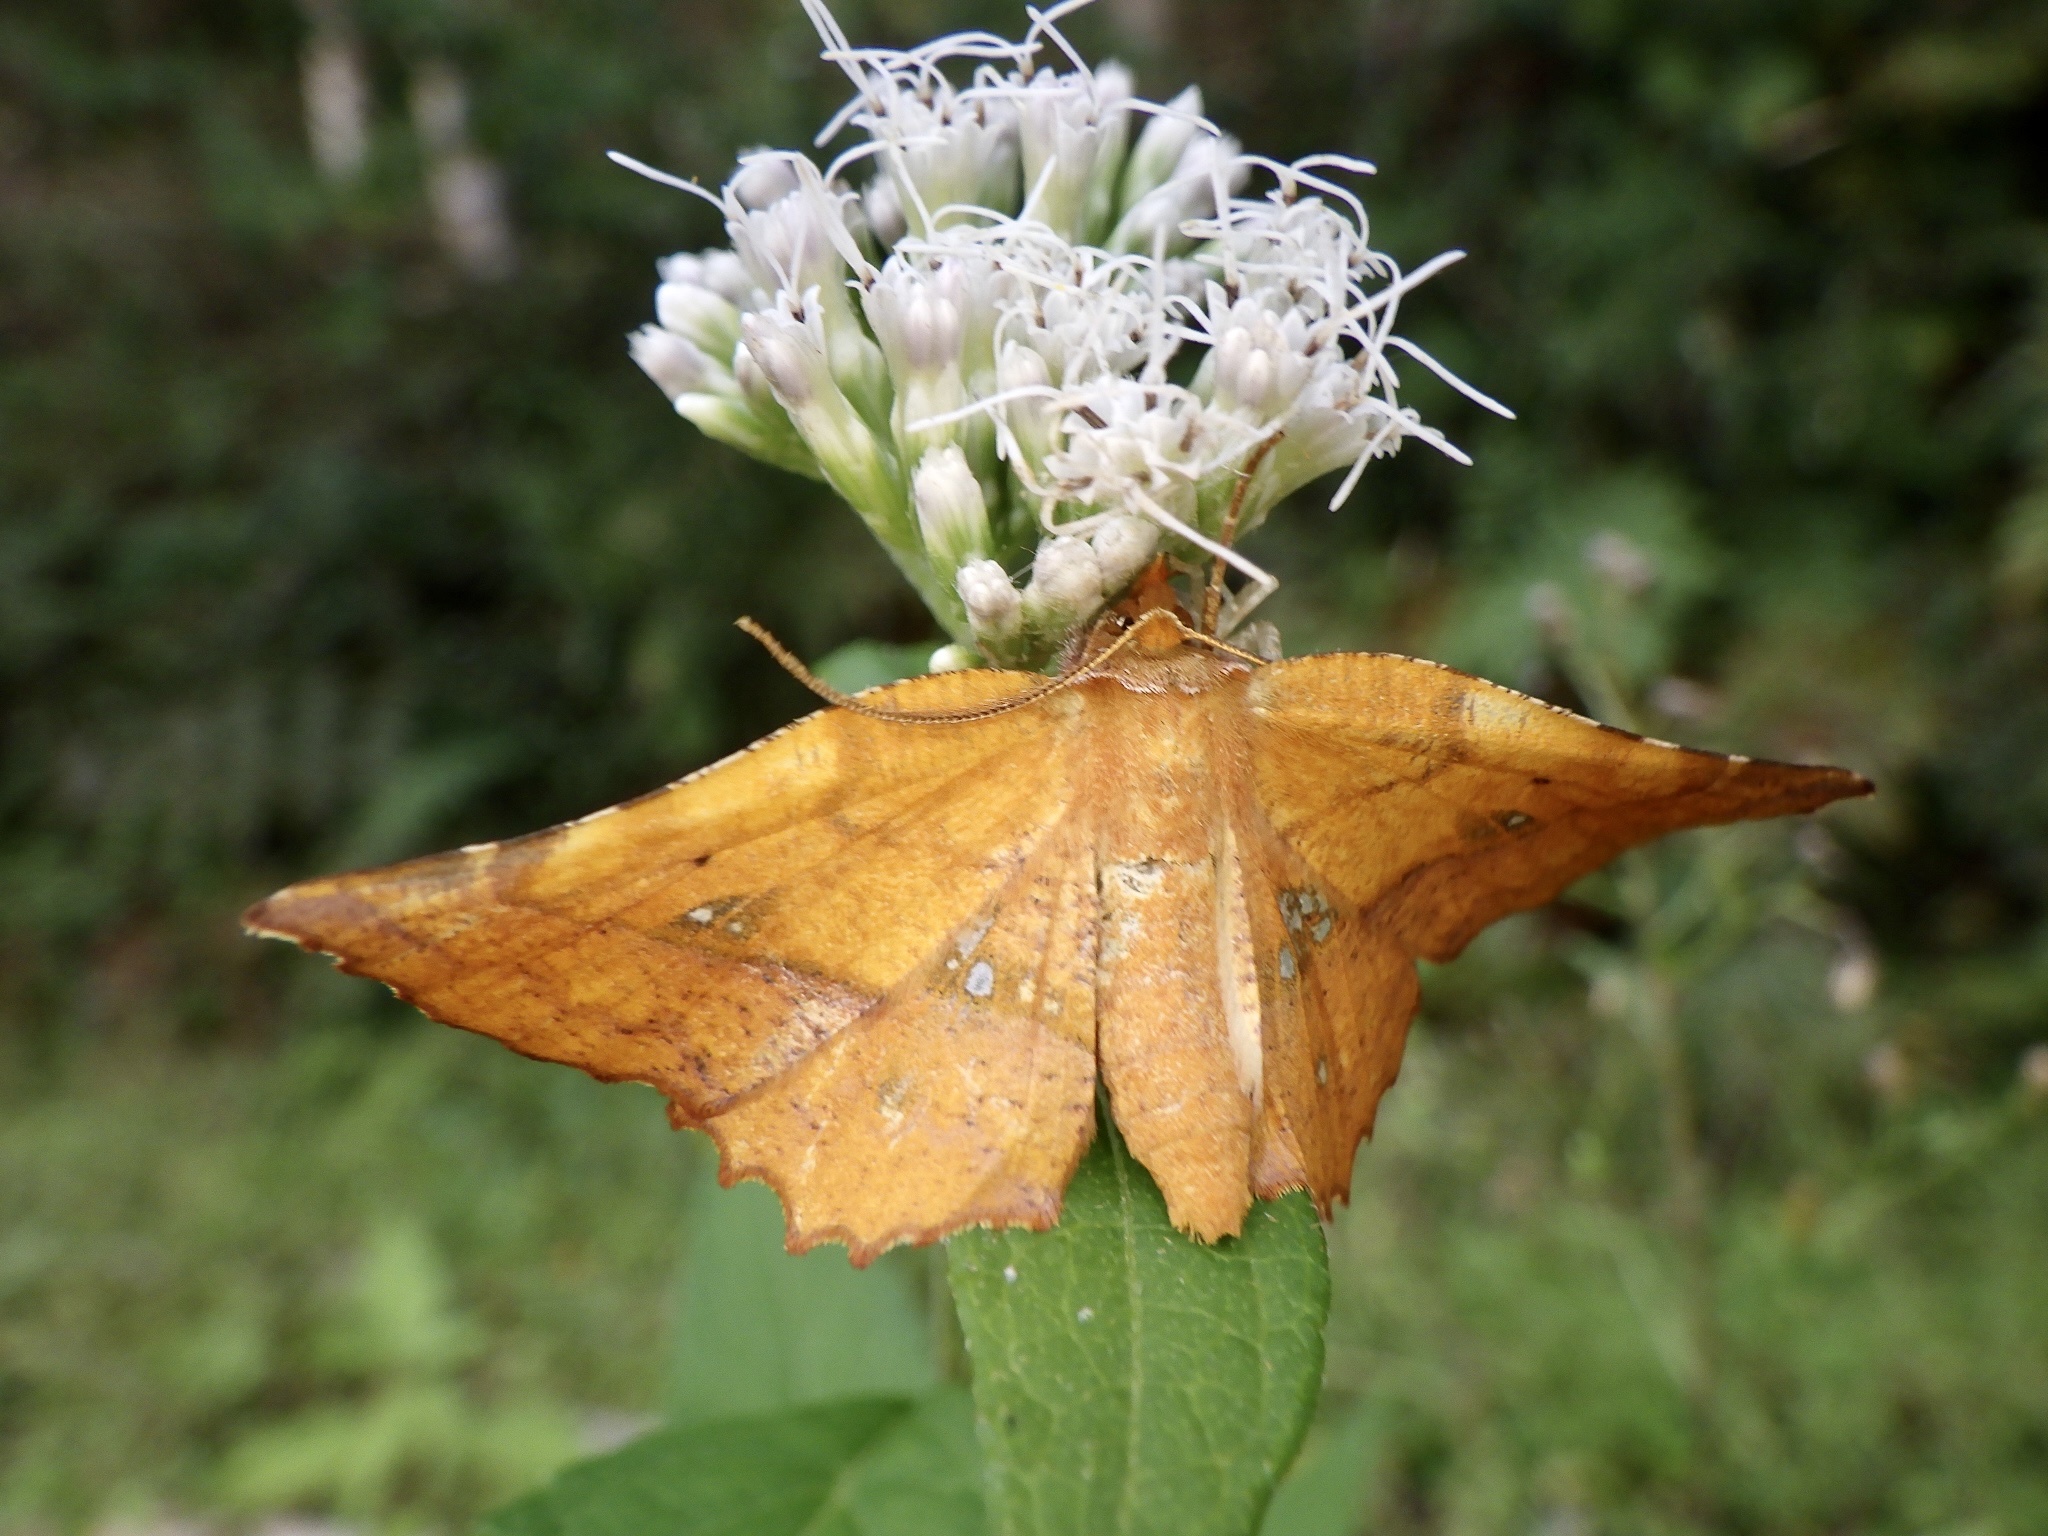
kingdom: Animalia
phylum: Arthropoda
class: Insecta
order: Lepidoptera
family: Geometridae
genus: Garaeus
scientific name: Garaeus specularis
